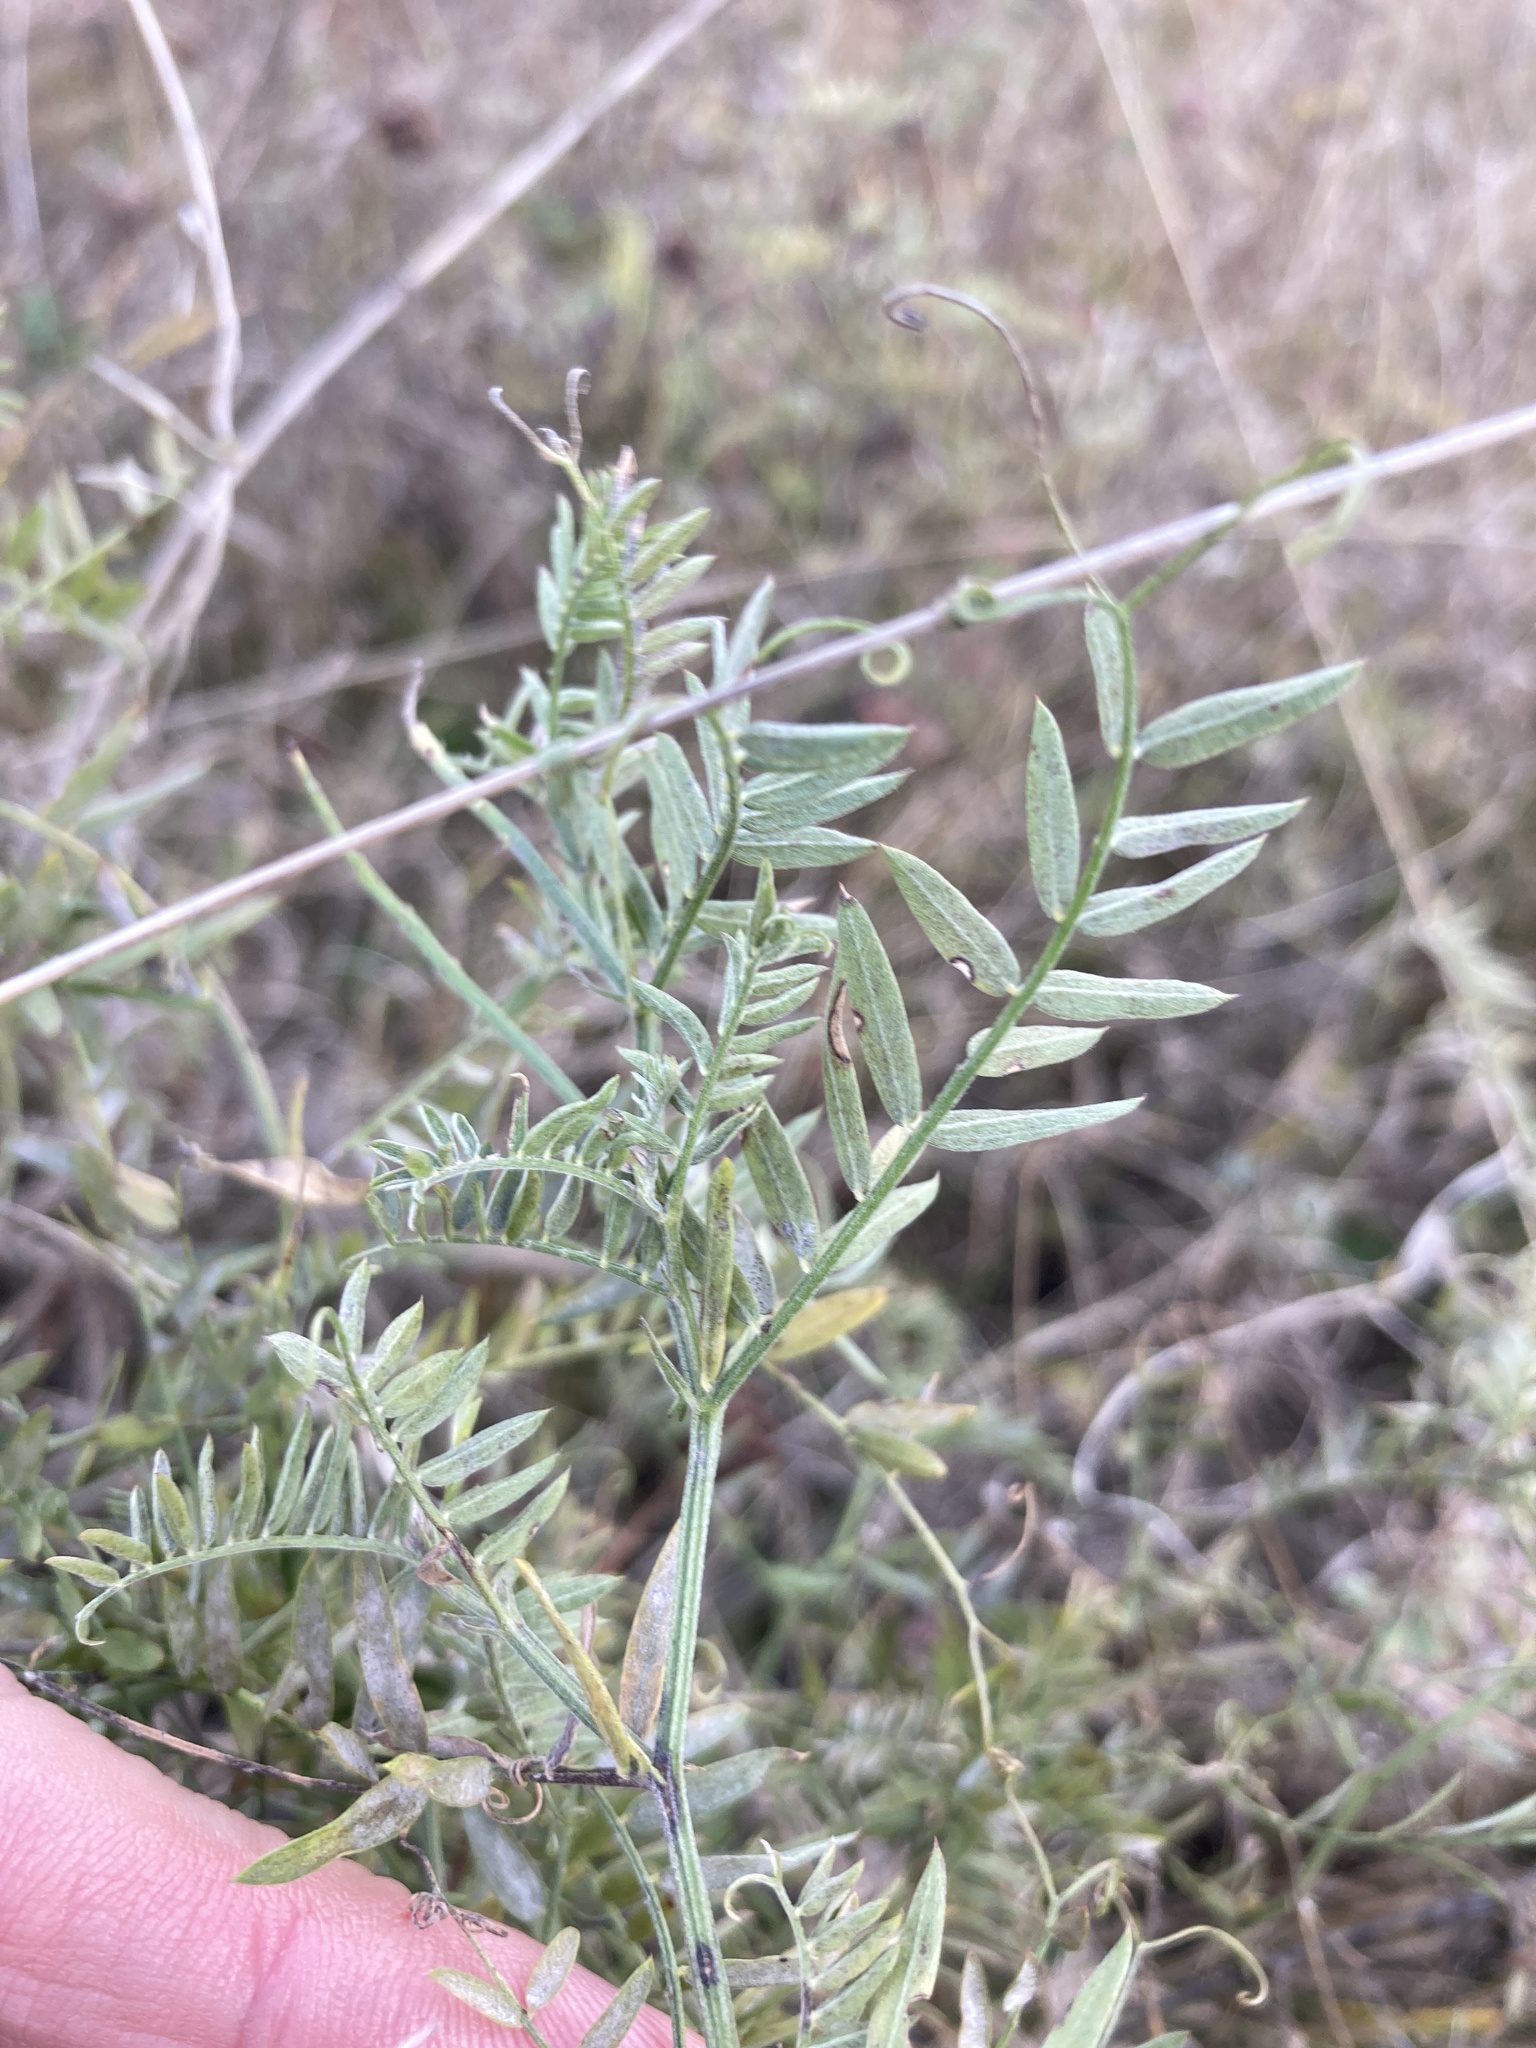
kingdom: Plantae
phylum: Tracheophyta
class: Magnoliopsida
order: Fabales
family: Fabaceae
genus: Vicia
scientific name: Vicia cracca
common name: Bird vetch
